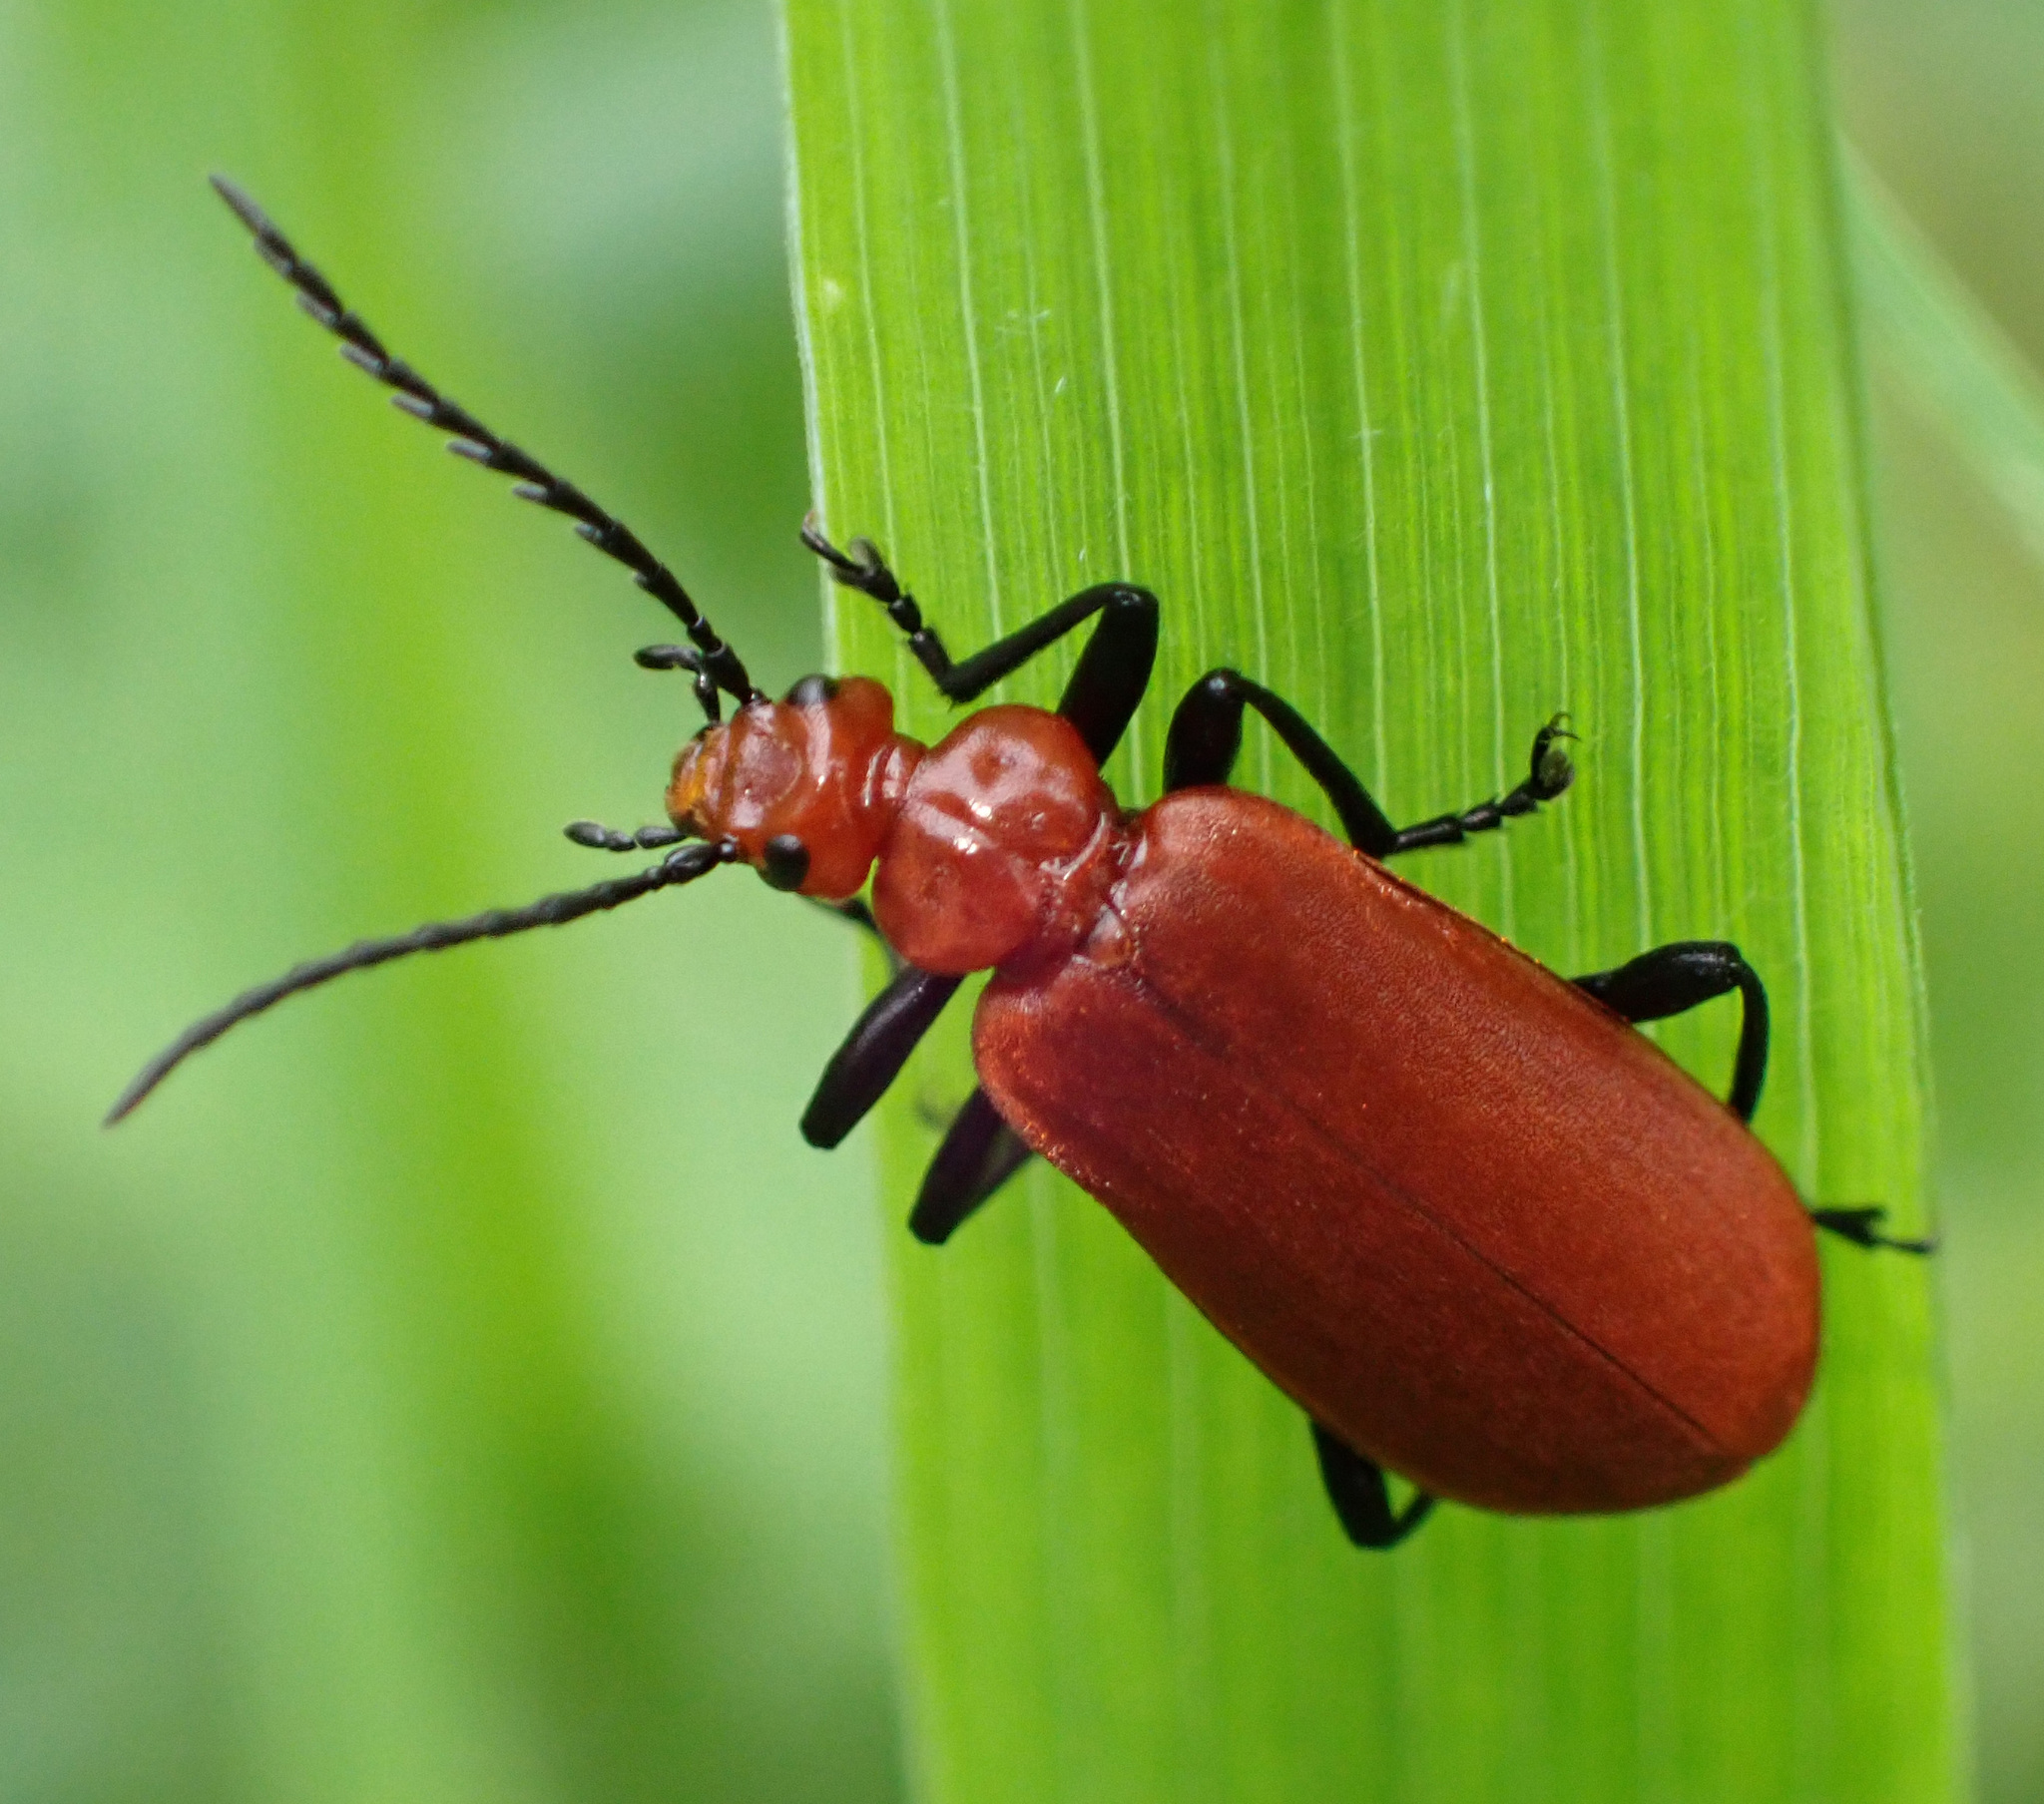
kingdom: Animalia
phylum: Arthropoda
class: Insecta
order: Coleoptera
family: Pyrochroidae
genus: Pyrochroa
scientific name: Pyrochroa serraticornis
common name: Red-headed cardinal beetle
